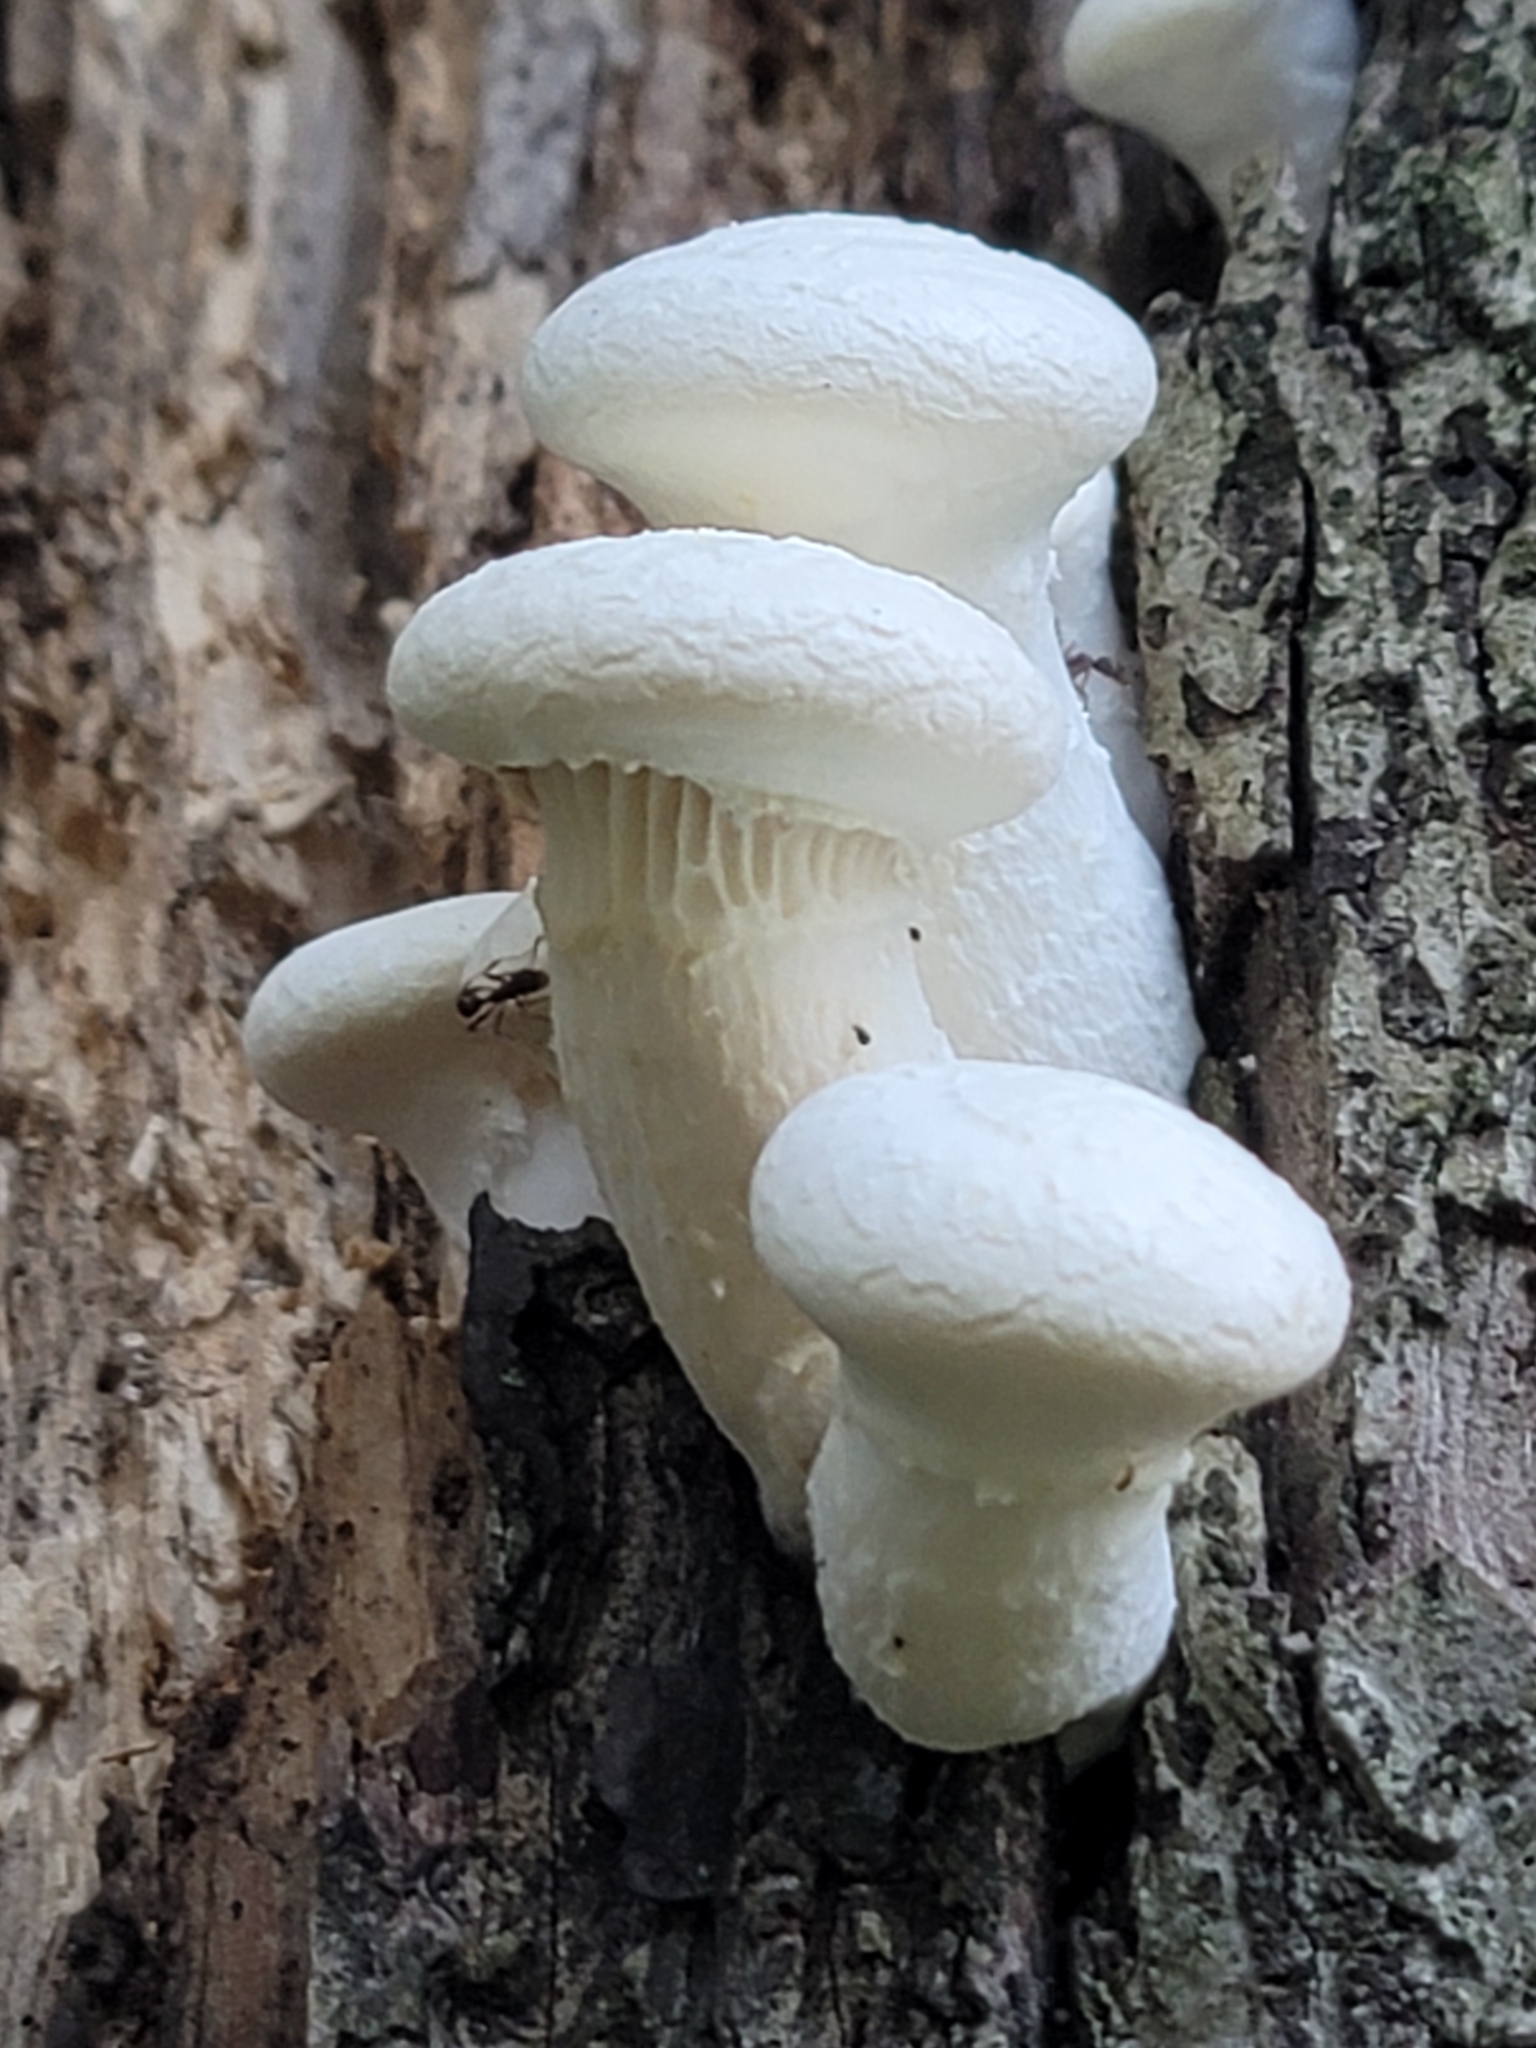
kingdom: Fungi
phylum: Basidiomycota
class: Agaricomycetes
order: Polyporales
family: Polyporaceae
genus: Lentinus
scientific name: Lentinus levis
